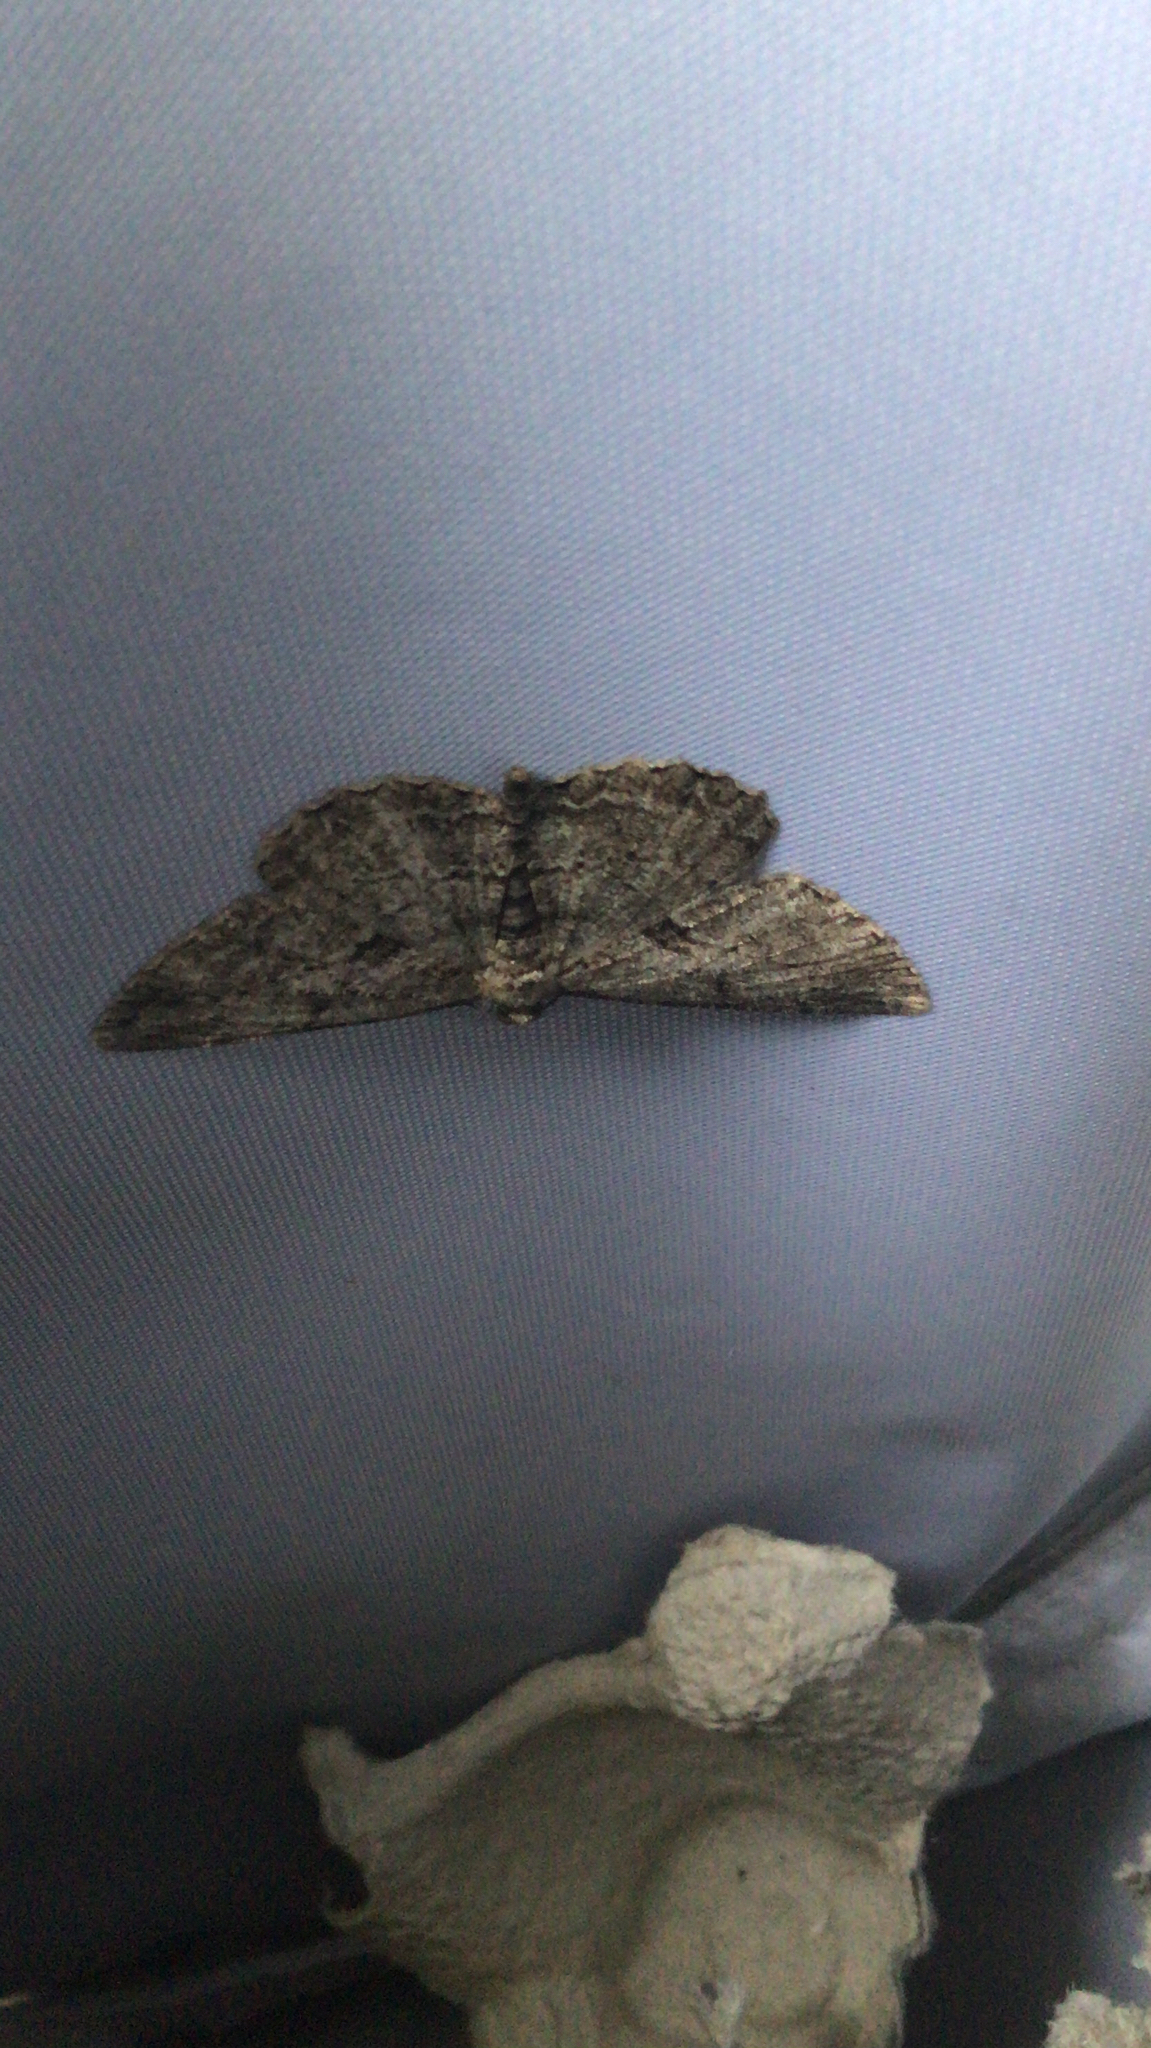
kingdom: Animalia
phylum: Arthropoda
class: Insecta
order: Lepidoptera
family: Geometridae
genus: Peribatodes
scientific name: Peribatodes rhomboidaria
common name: Willow beauty
